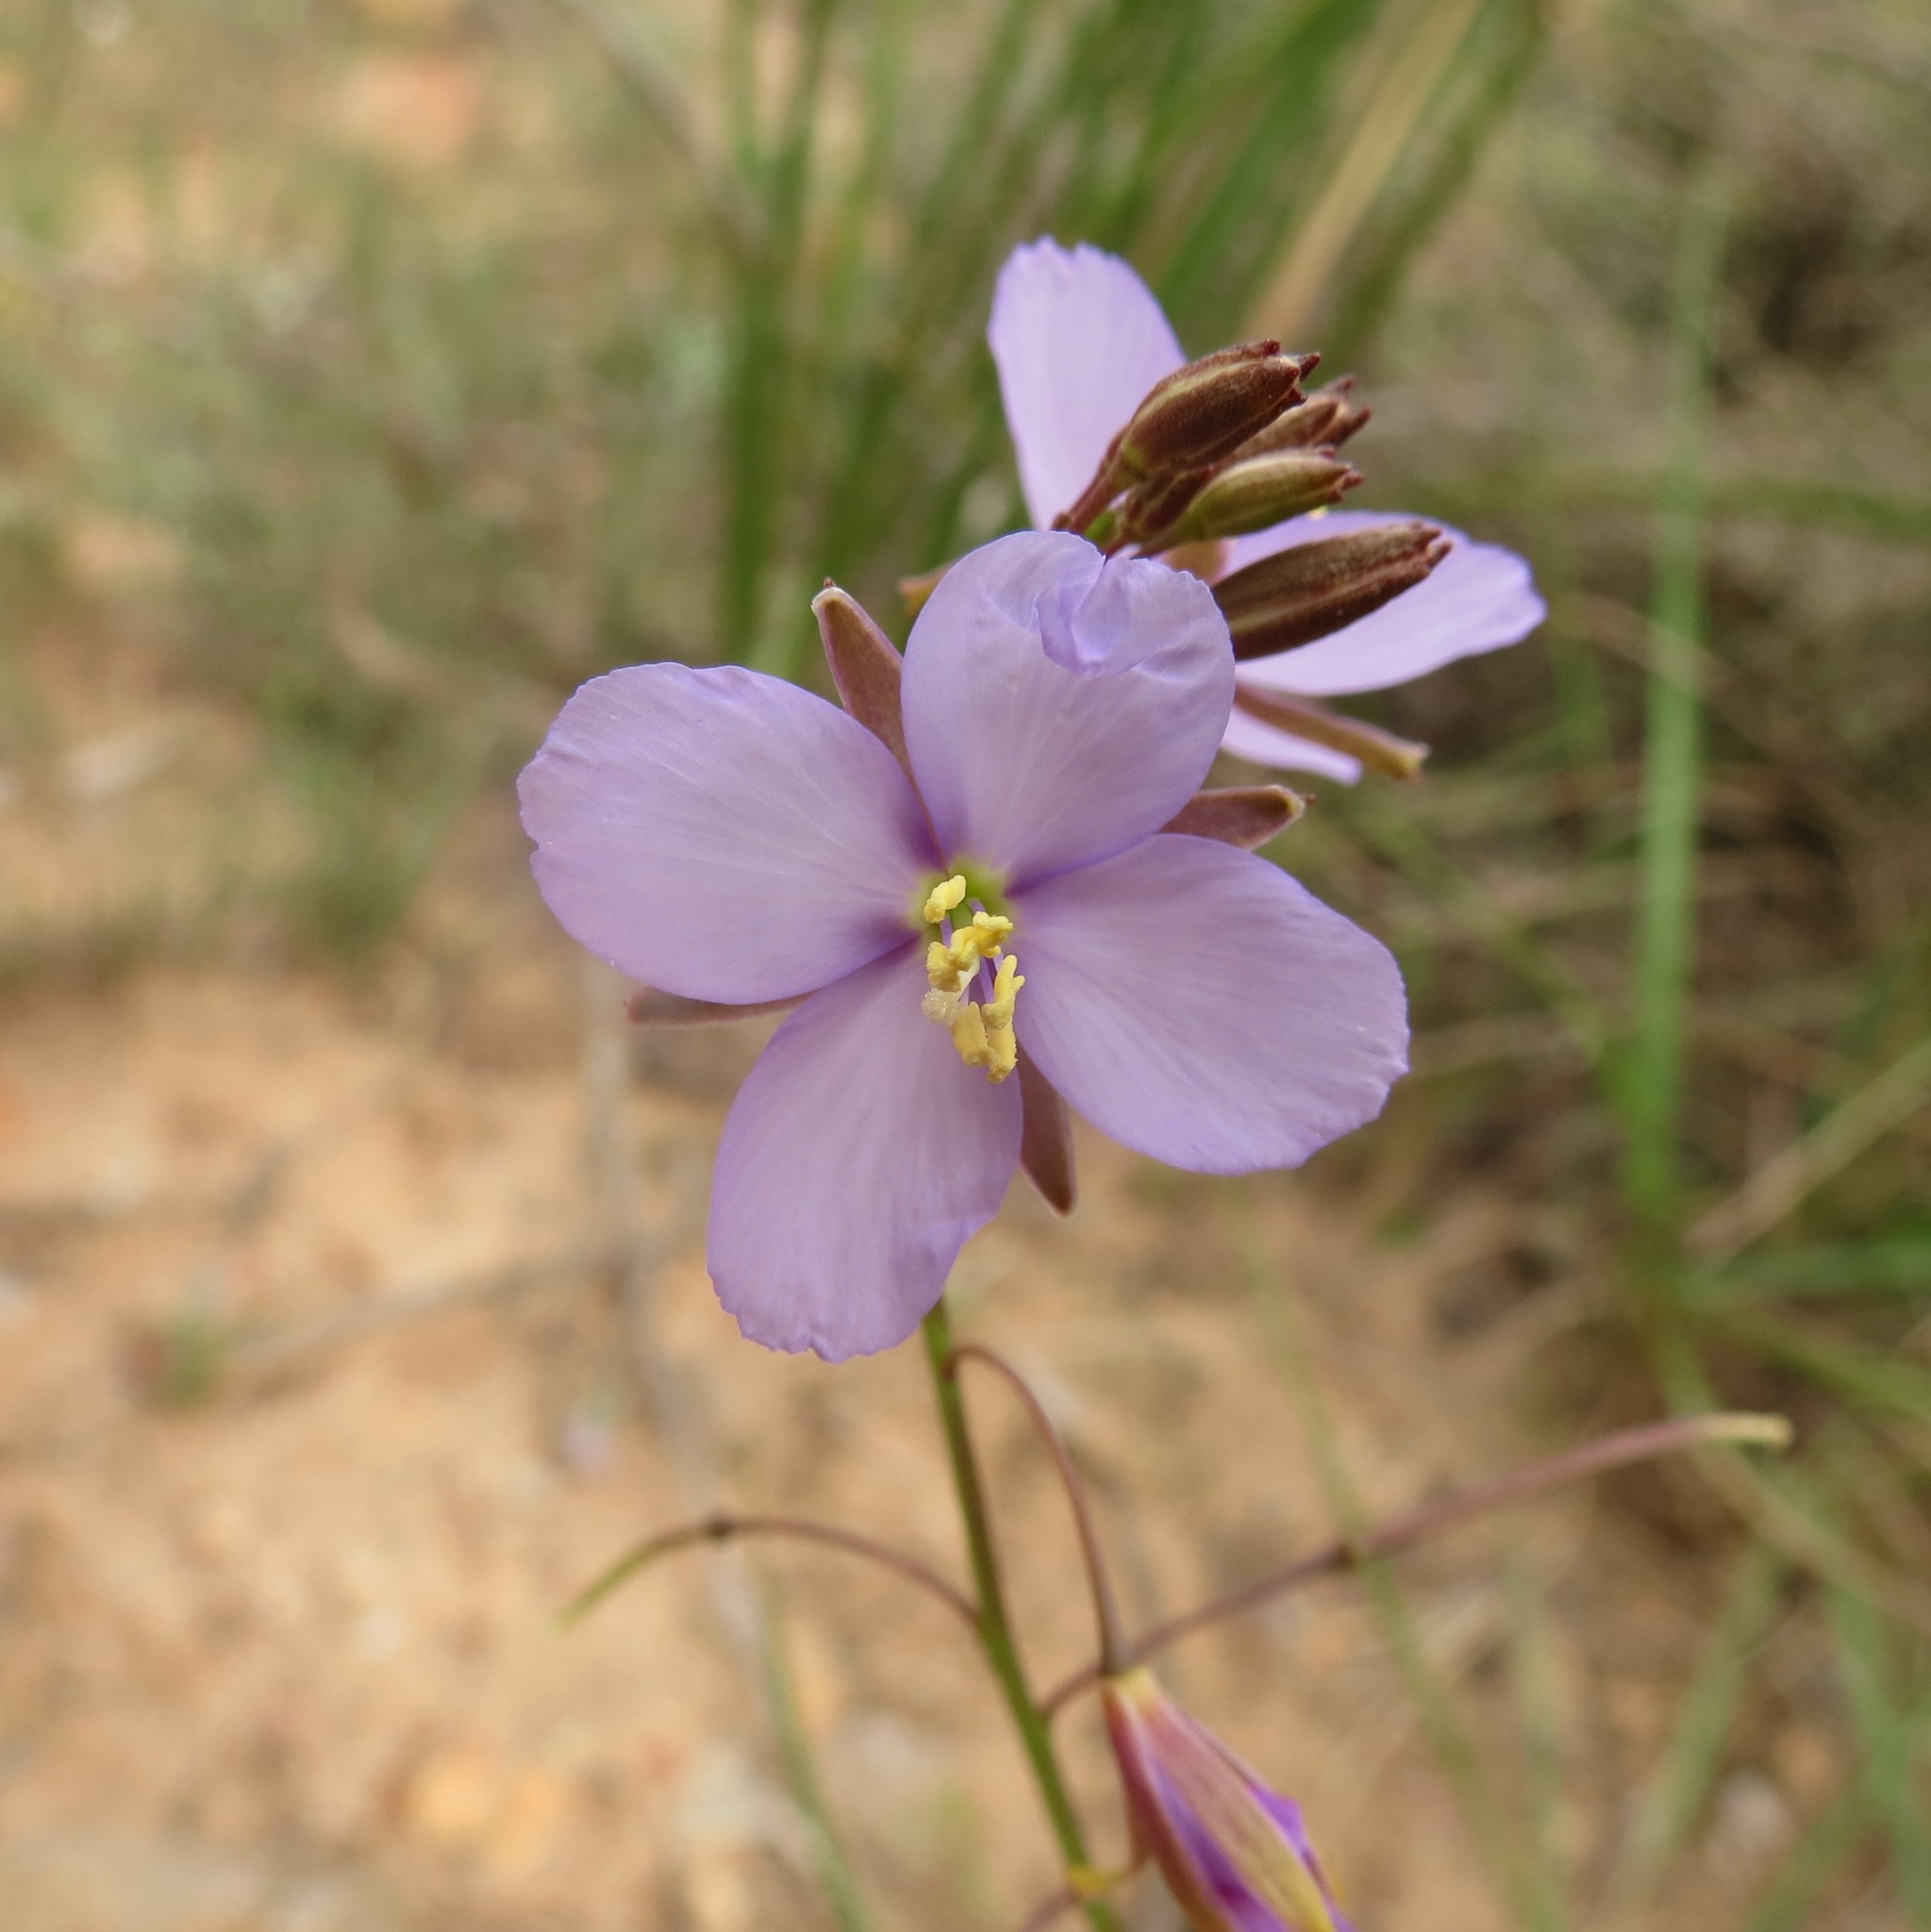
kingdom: Plantae
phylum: Tracheophyta
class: Magnoliopsida
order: Brassicales
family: Brassicaceae
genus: Heliophila
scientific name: Heliophila subulata
